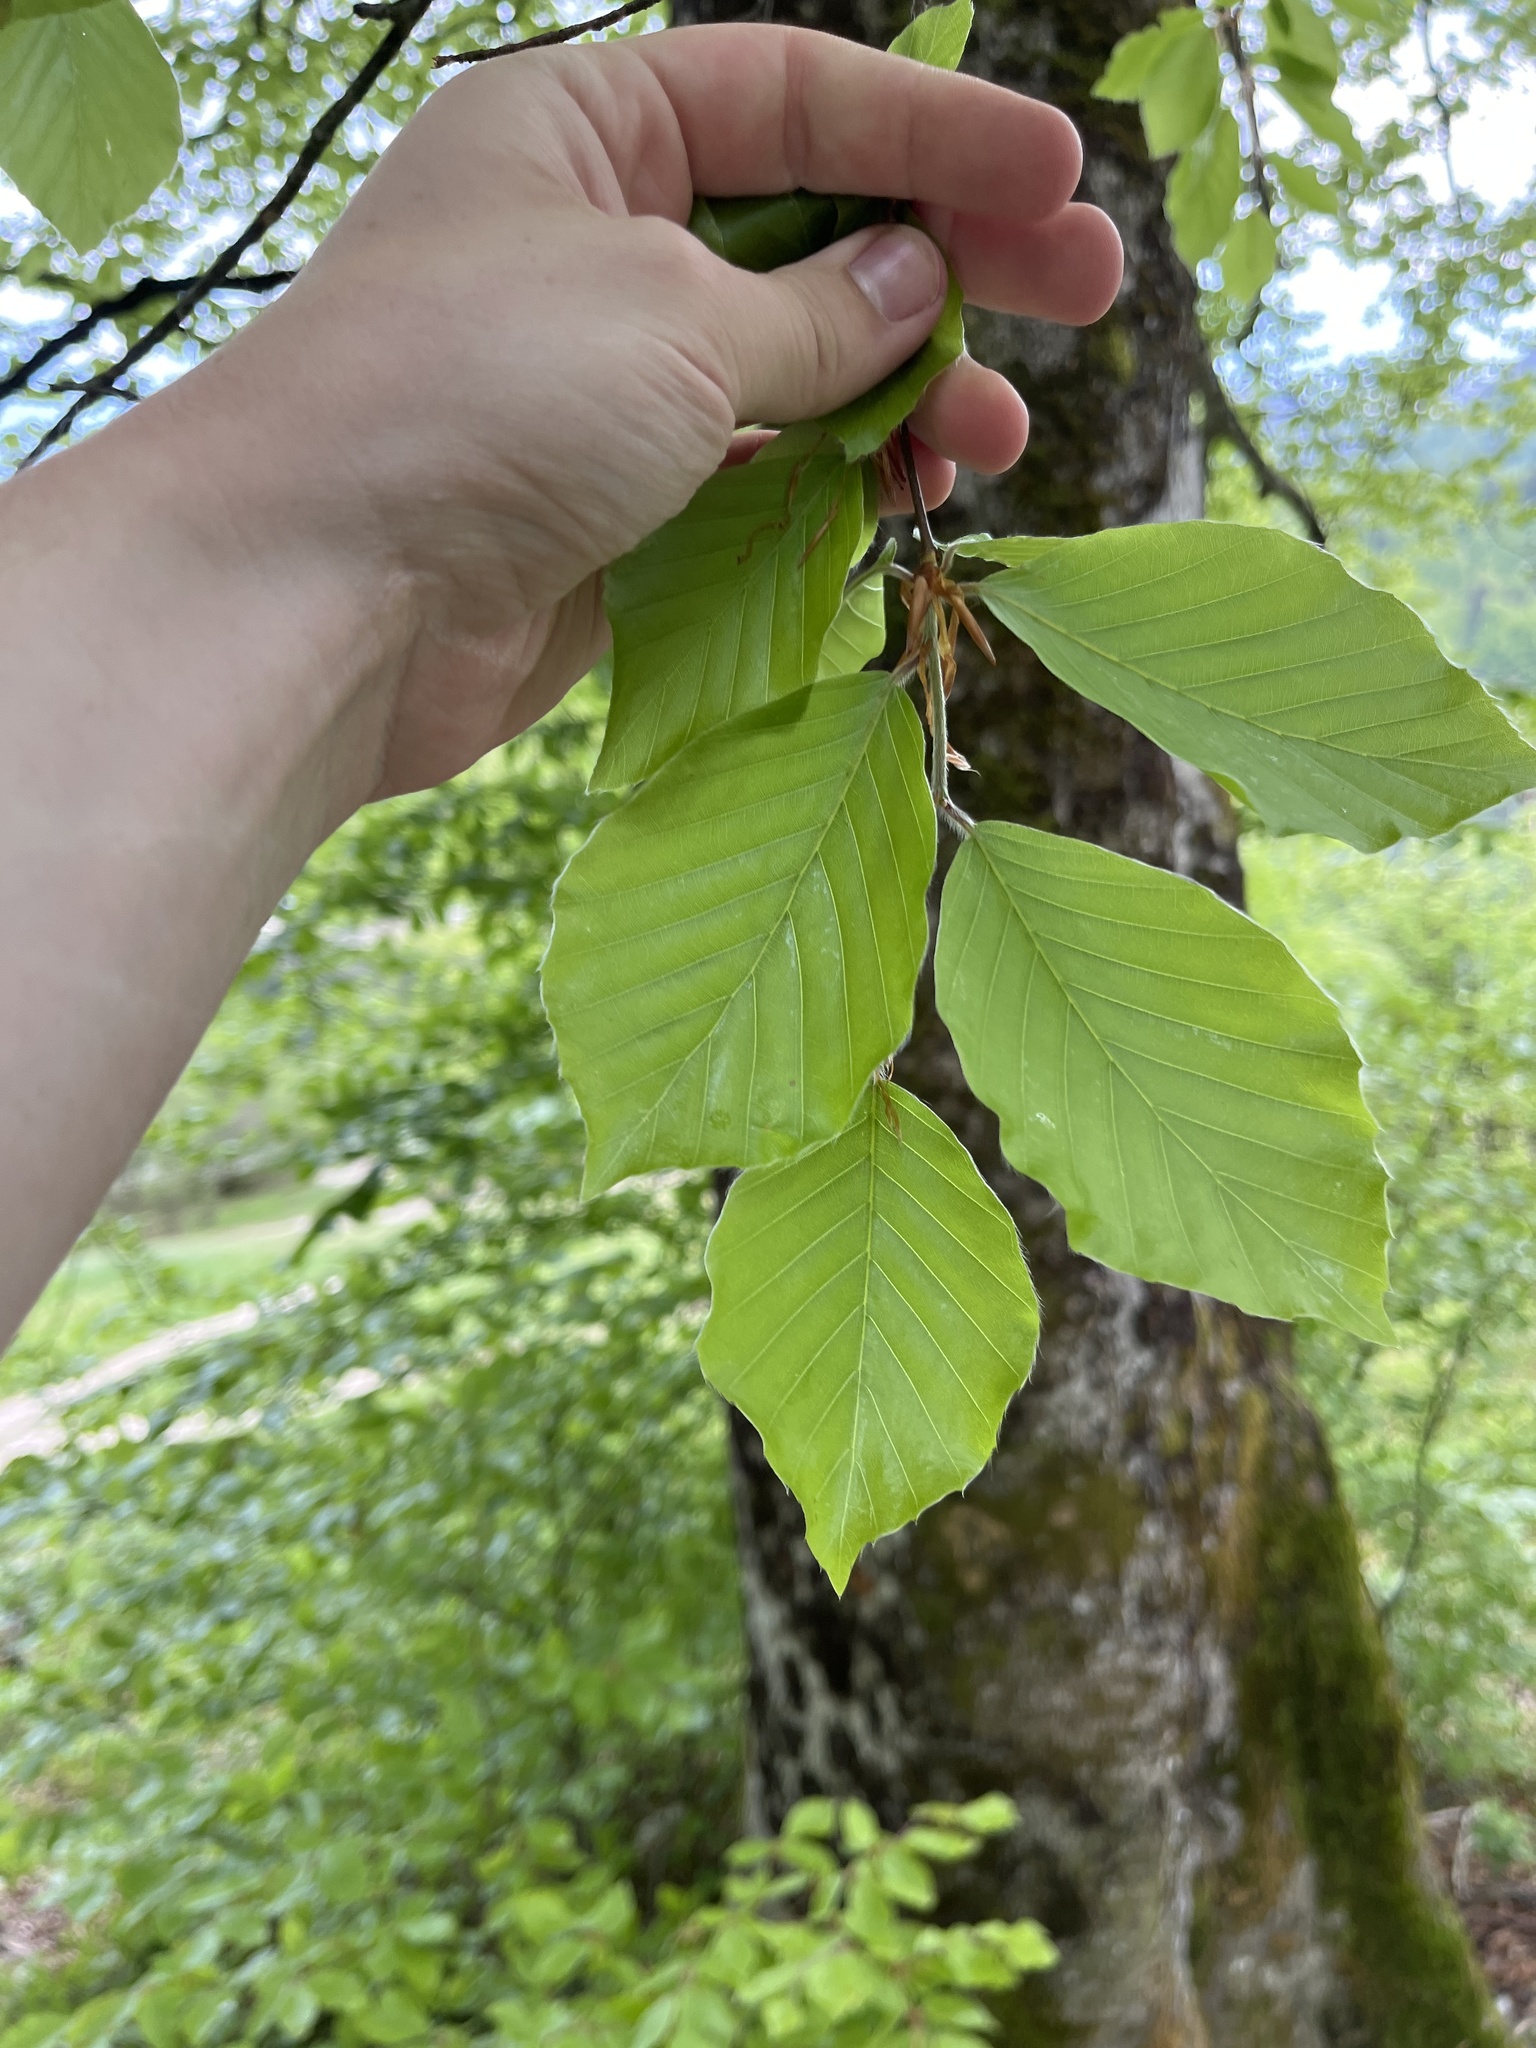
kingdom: Plantae
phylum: Tracheophyta
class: Magnoliopsida
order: Fagales
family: Fagaceae
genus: Fagus
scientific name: Fagus sylvatica
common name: Beech
